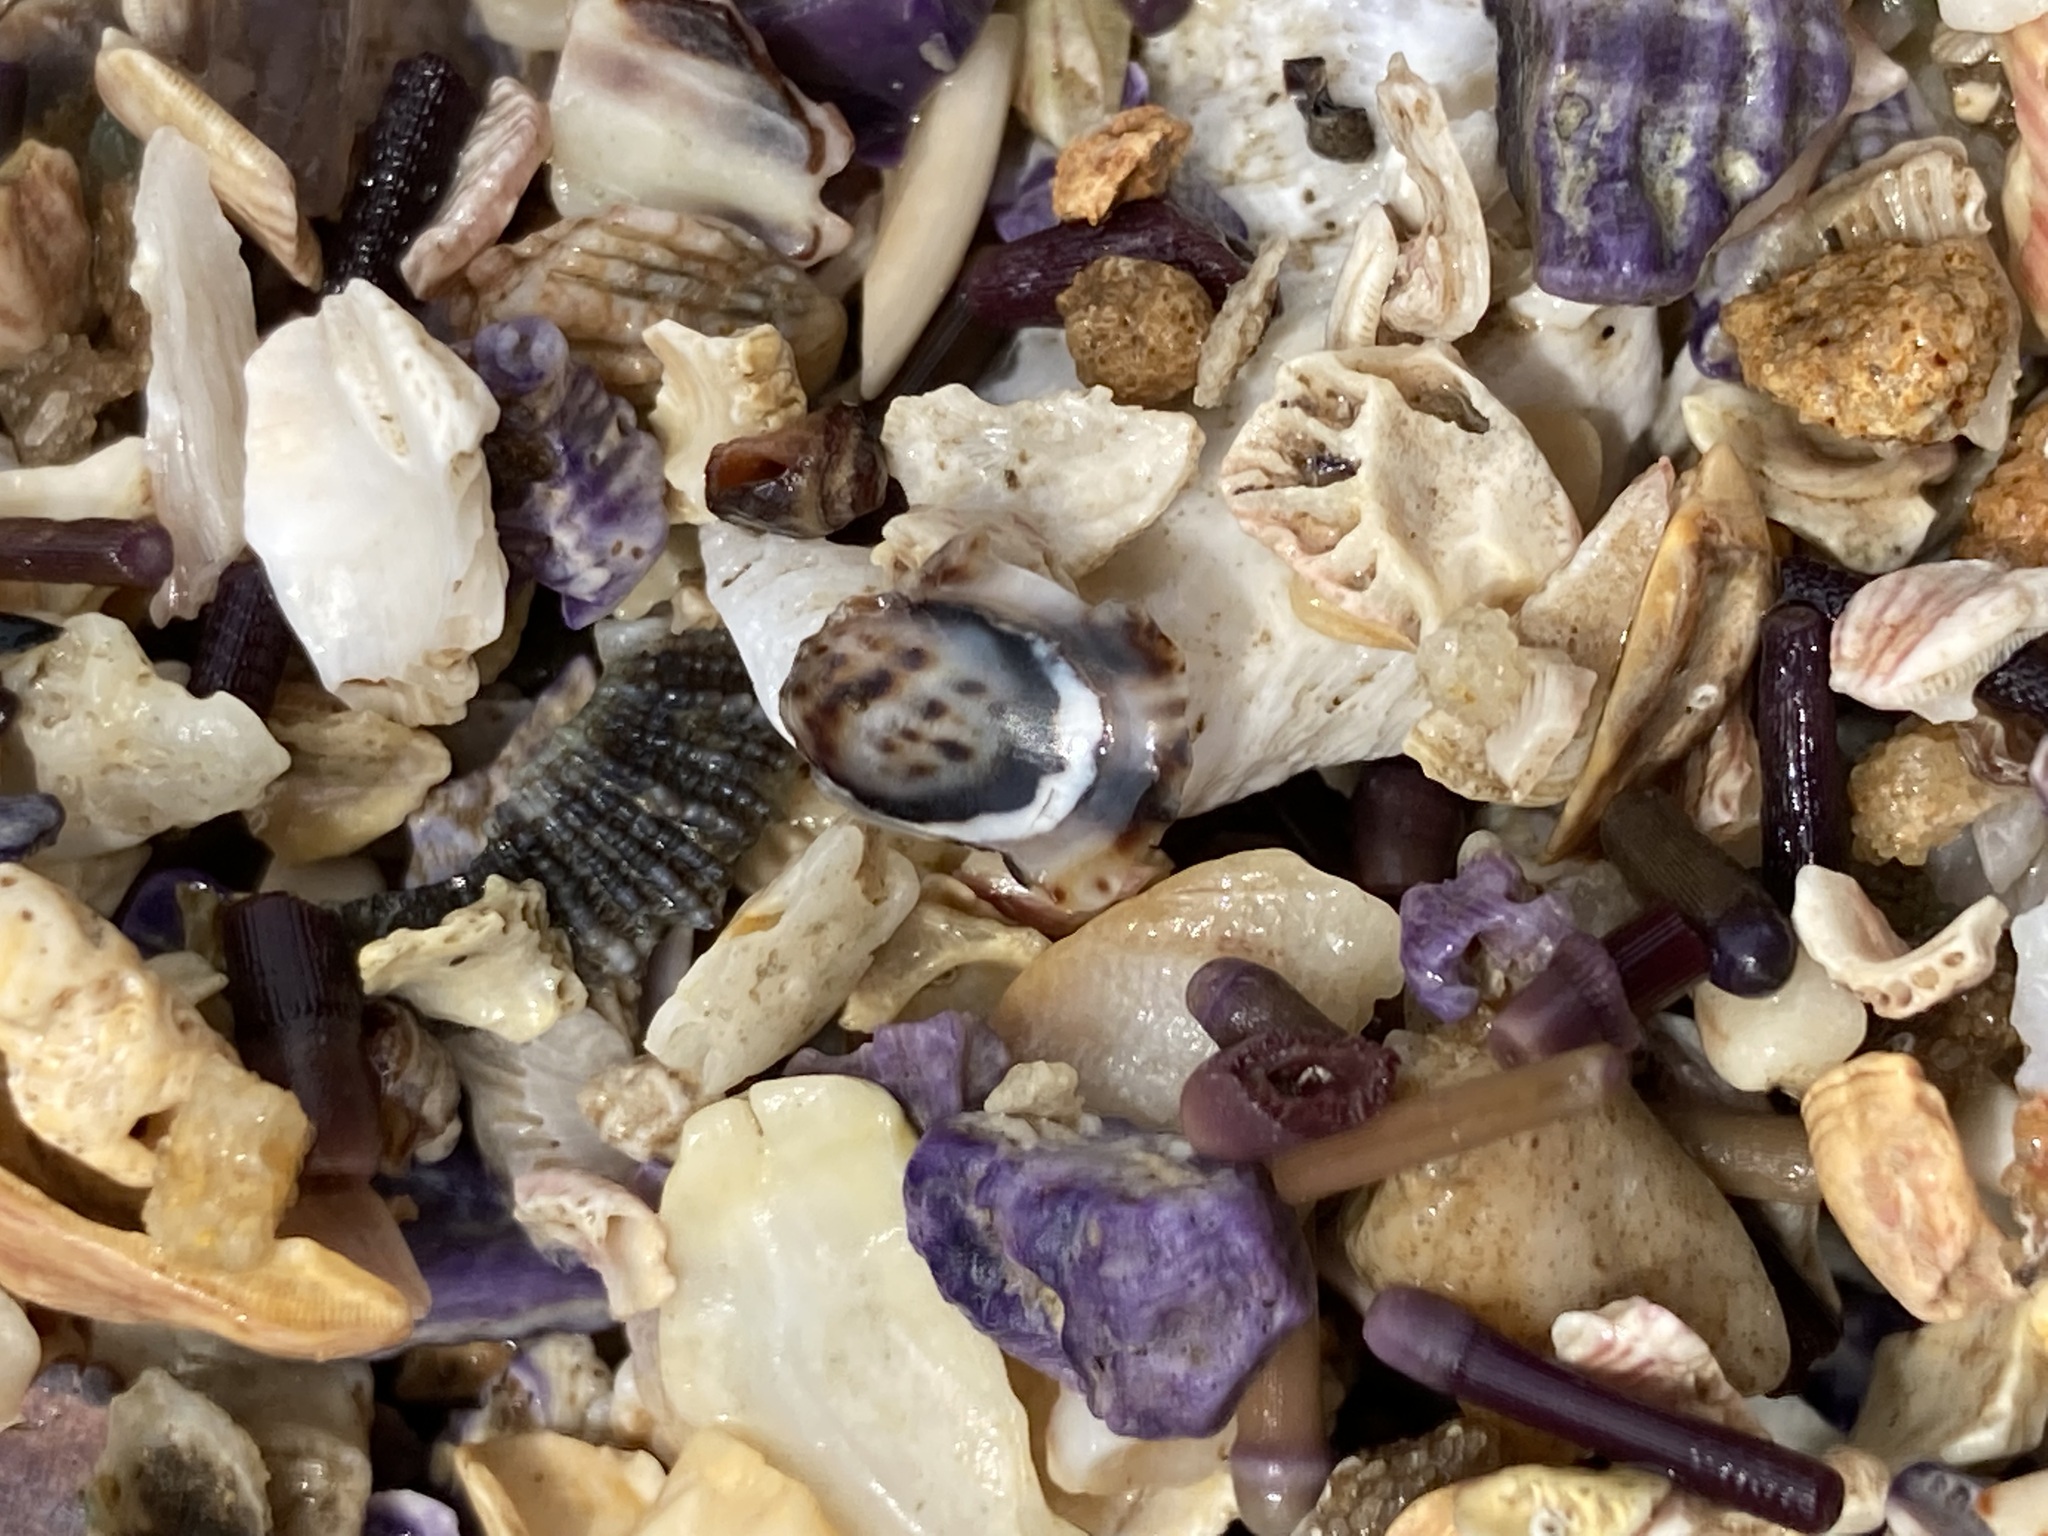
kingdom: Animalia
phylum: Mollusca
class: Gastropoda
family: Lottiidae
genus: Patelloida
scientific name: Patelloida latistrigata
